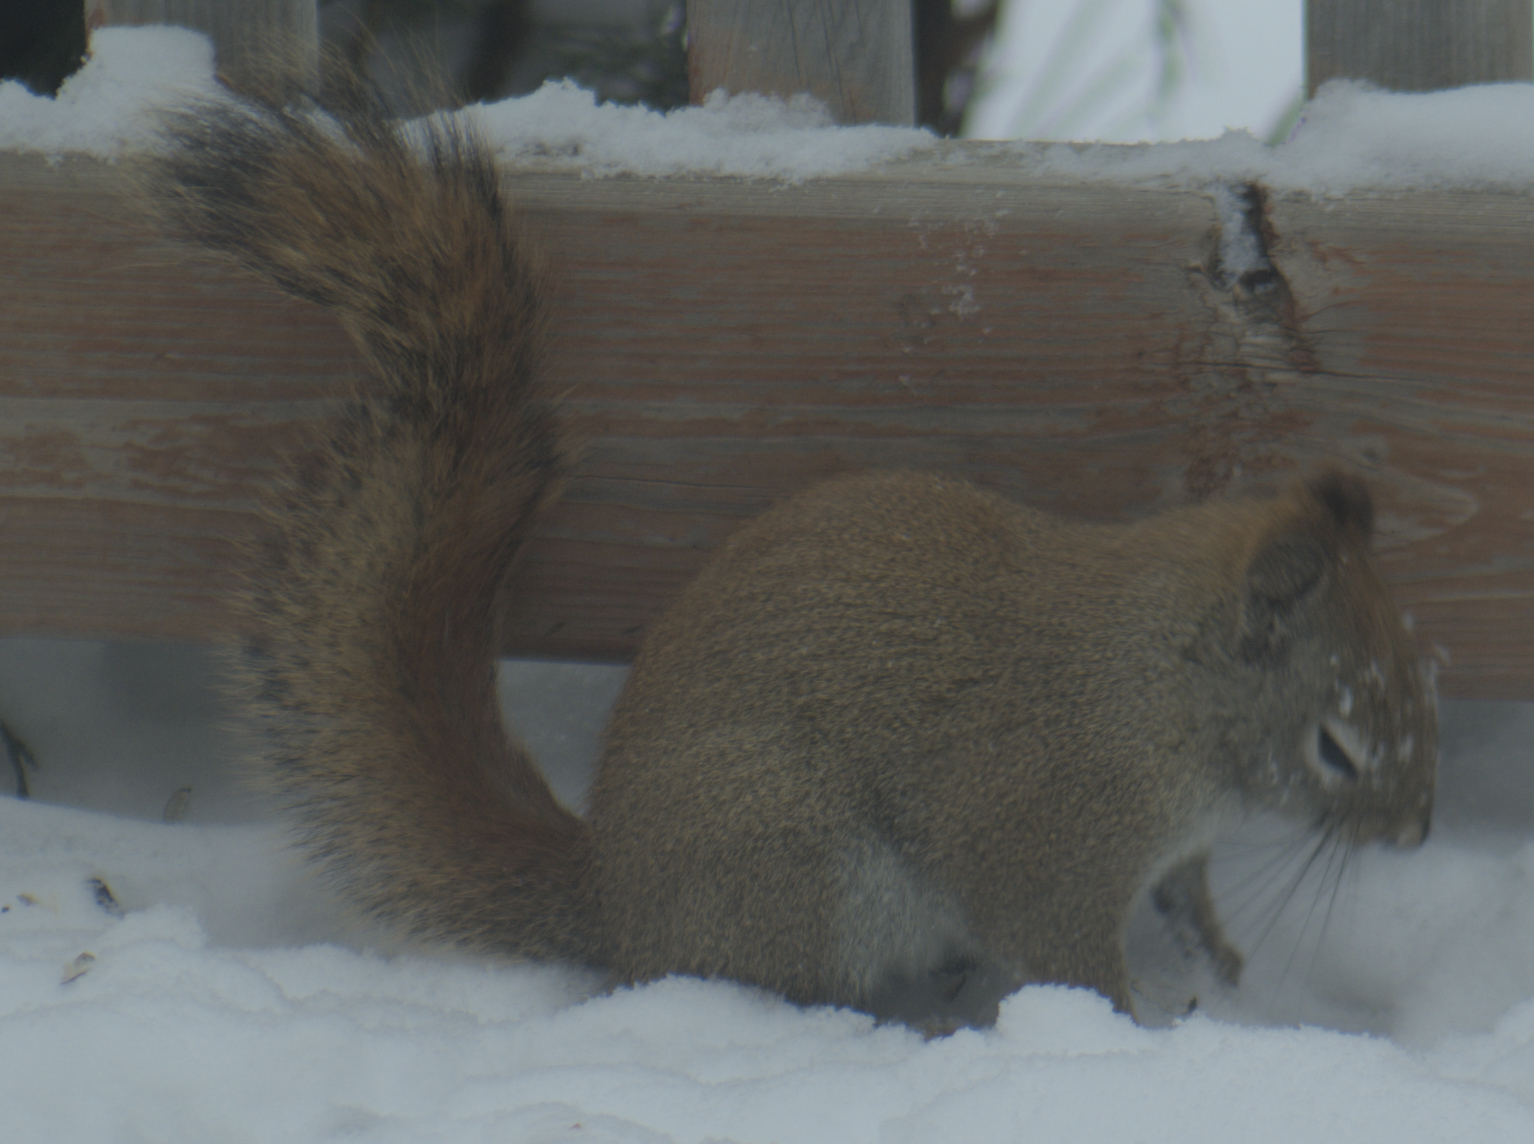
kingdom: Animalia
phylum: Chordata
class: Mammalia
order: Rodentia
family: Sciuridae
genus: Tamiasciurus
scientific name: Tamiasciurus hudsonicus
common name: Red squirrel
